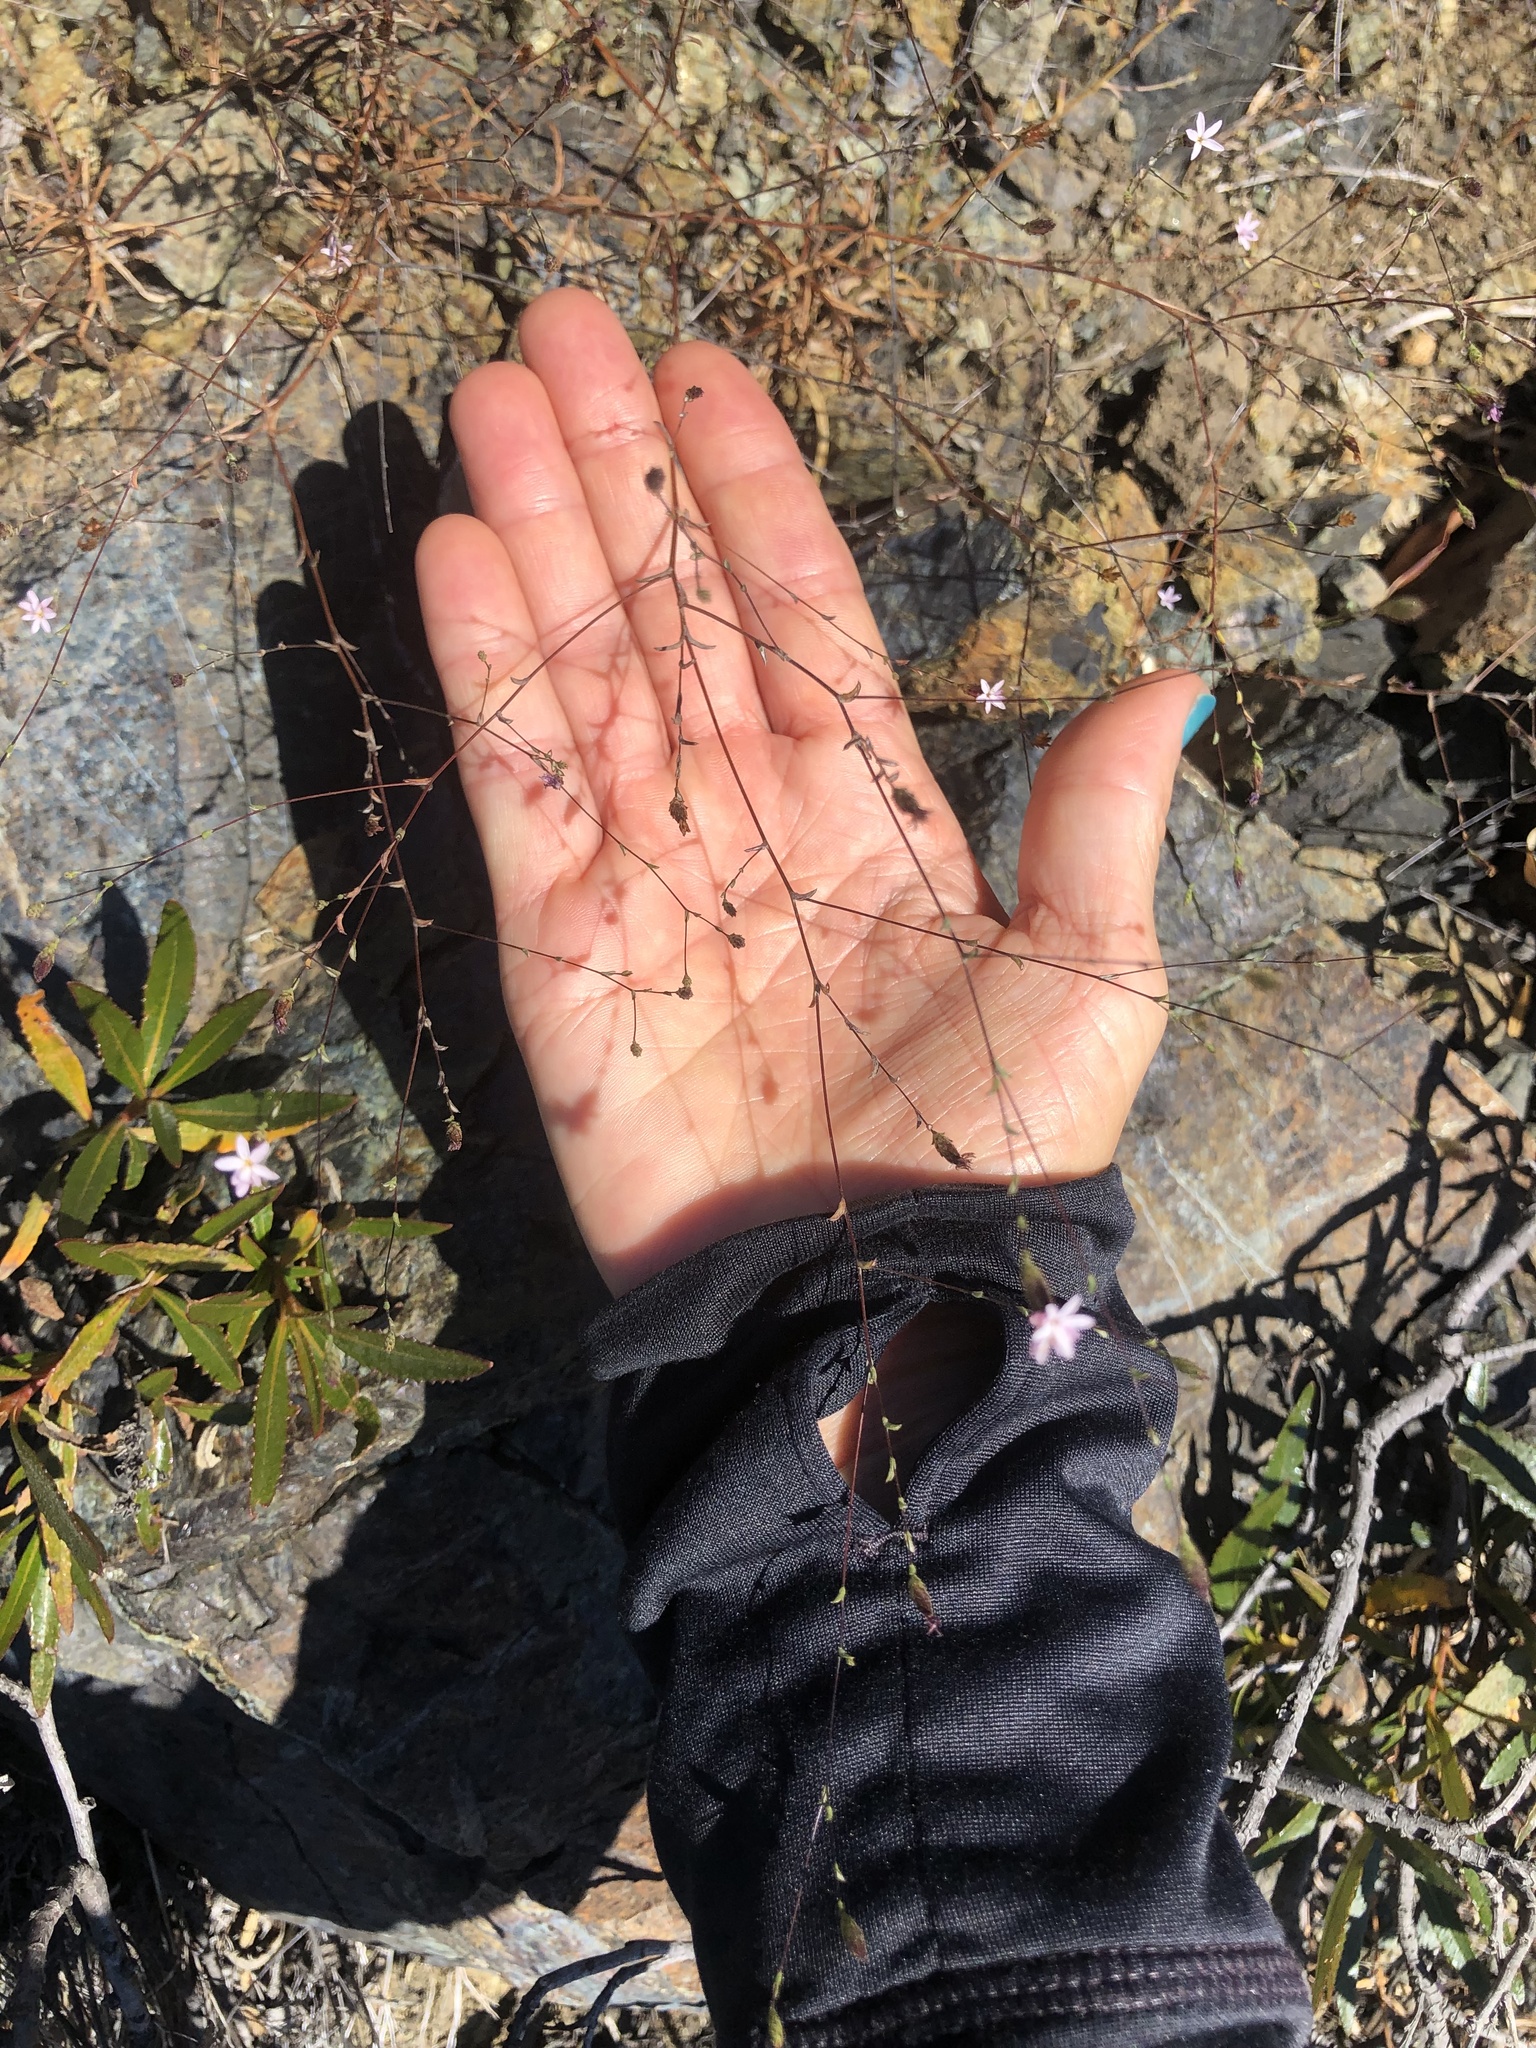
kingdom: Plantae
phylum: Tracheophyta
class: Magnoliopsida
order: Asterales
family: Asteraceae
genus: Lessingia
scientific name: Lessingia micradenia
